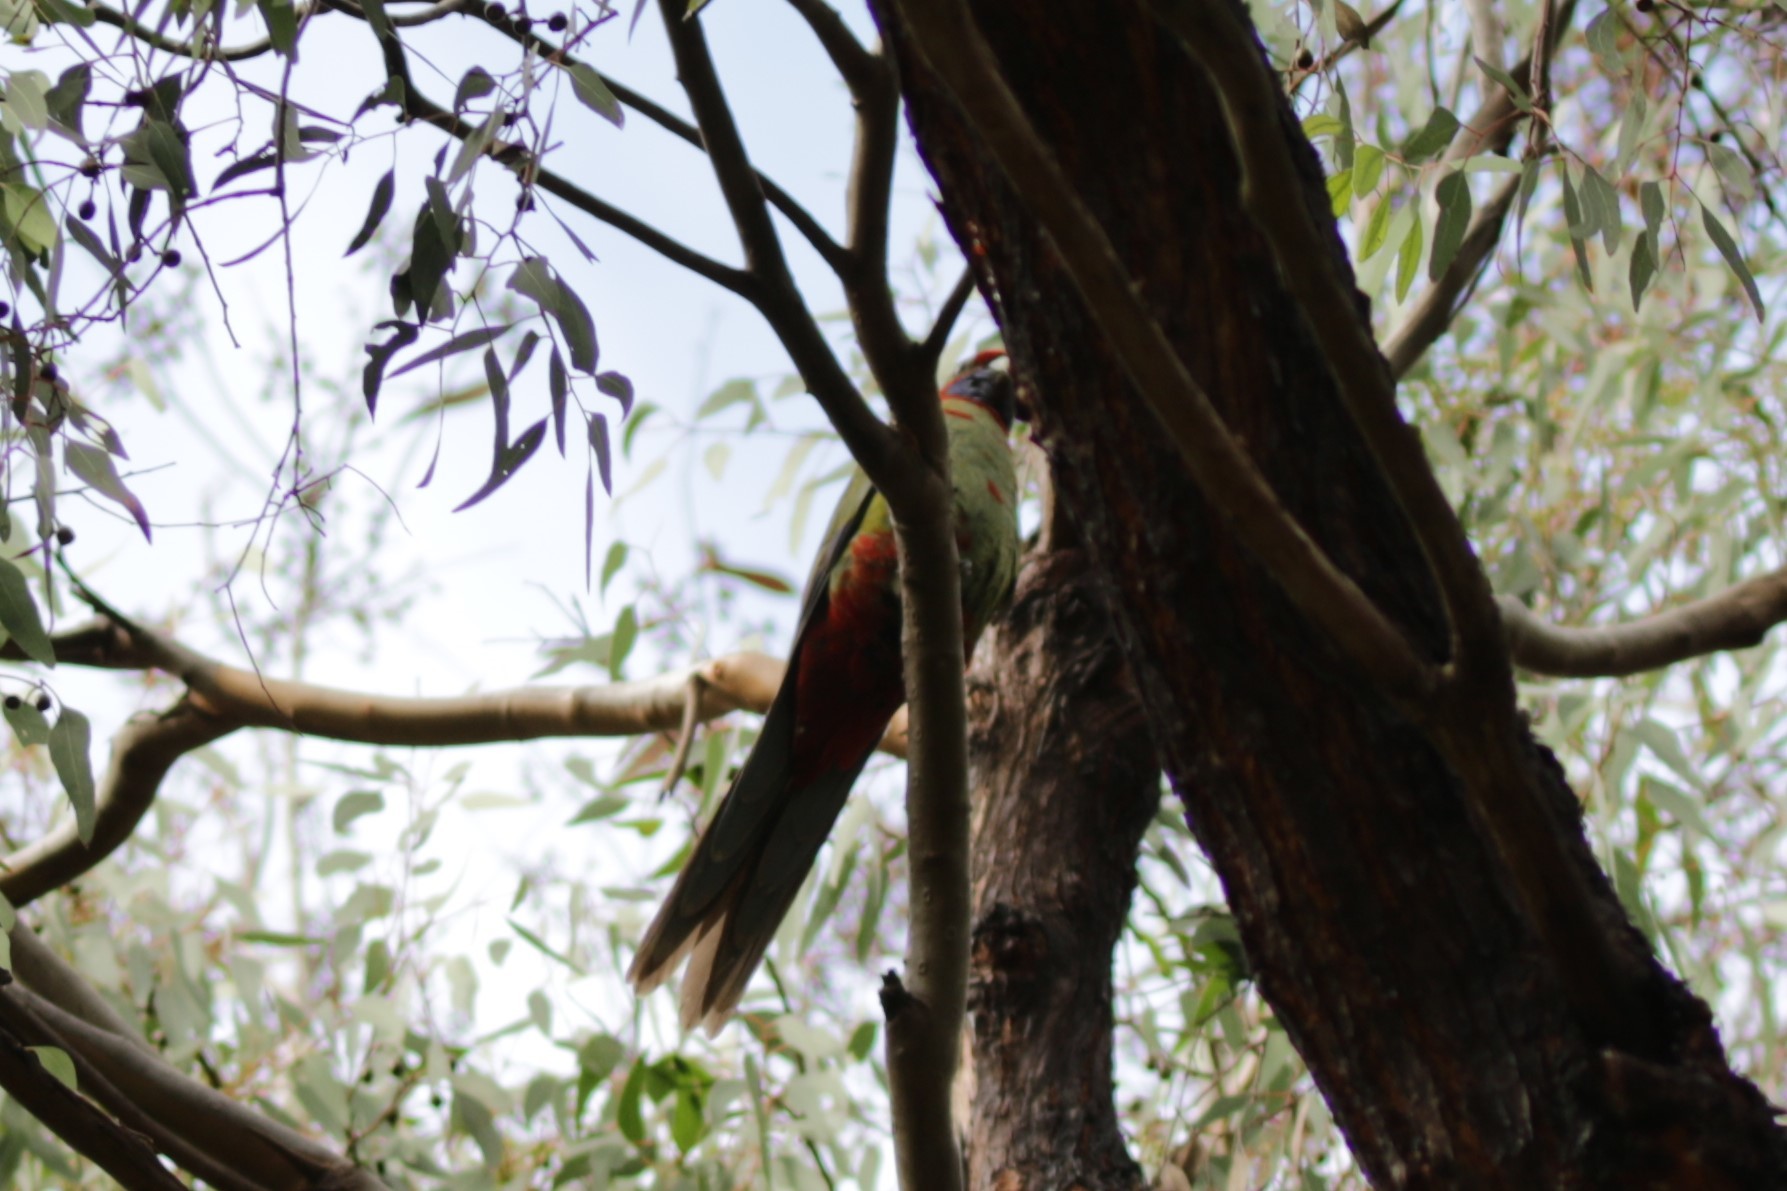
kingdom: Animalia
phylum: Chordata
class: Aves
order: Psittaciformes
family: Psittacidae
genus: Platycercus
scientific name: Platycercus elegans
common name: Crimson rosella
